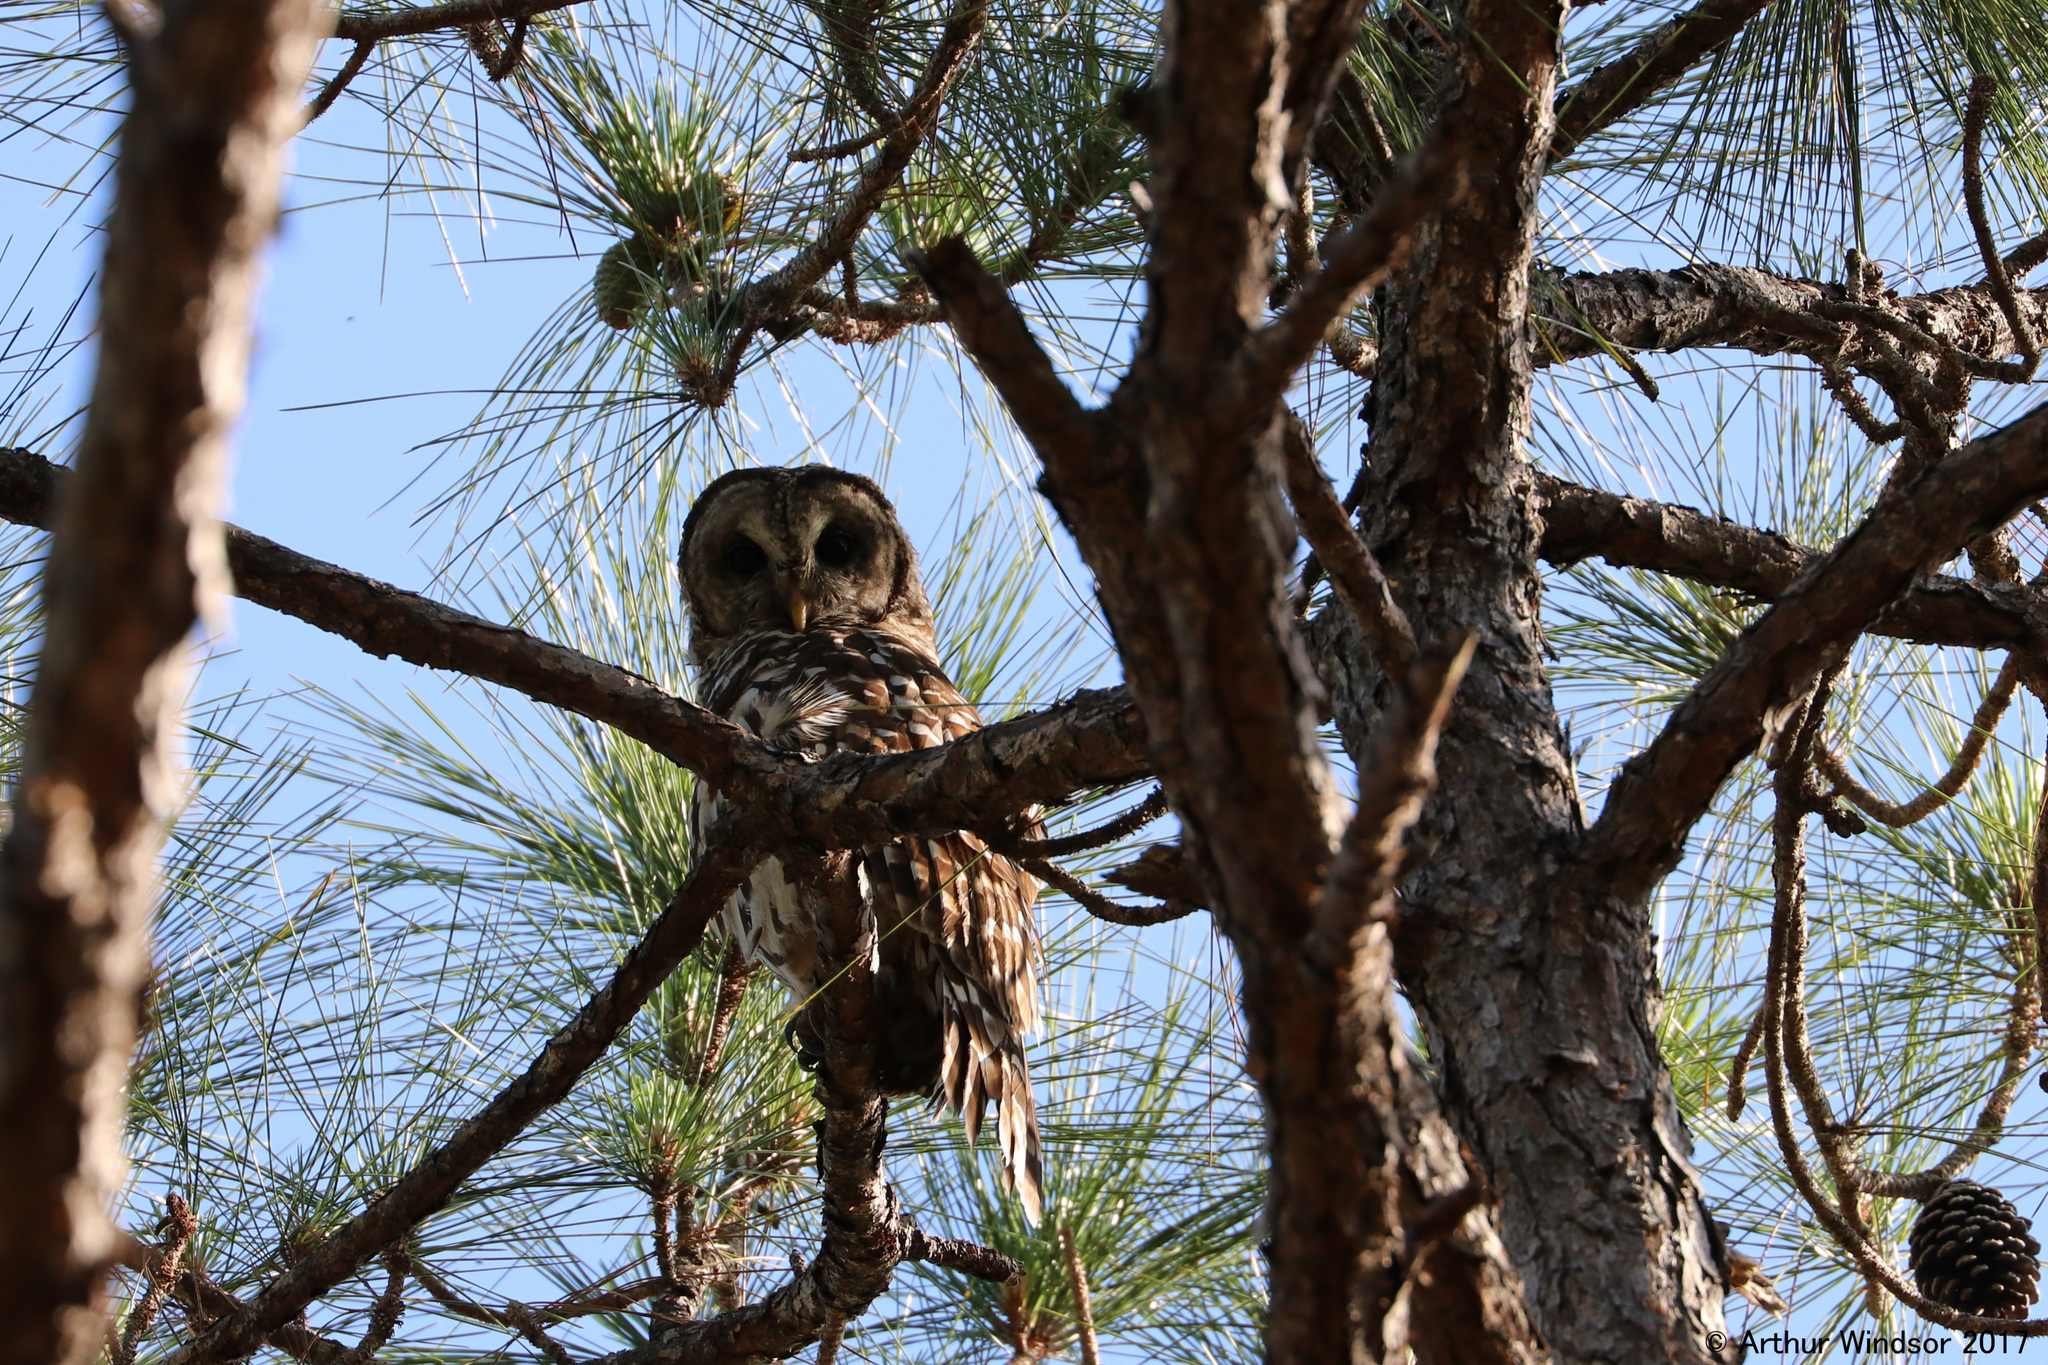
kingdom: Animalia
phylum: Chordata
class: Aves
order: Strigiformes
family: Strigidae
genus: Strix
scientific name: Strix varia
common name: Barred owl
